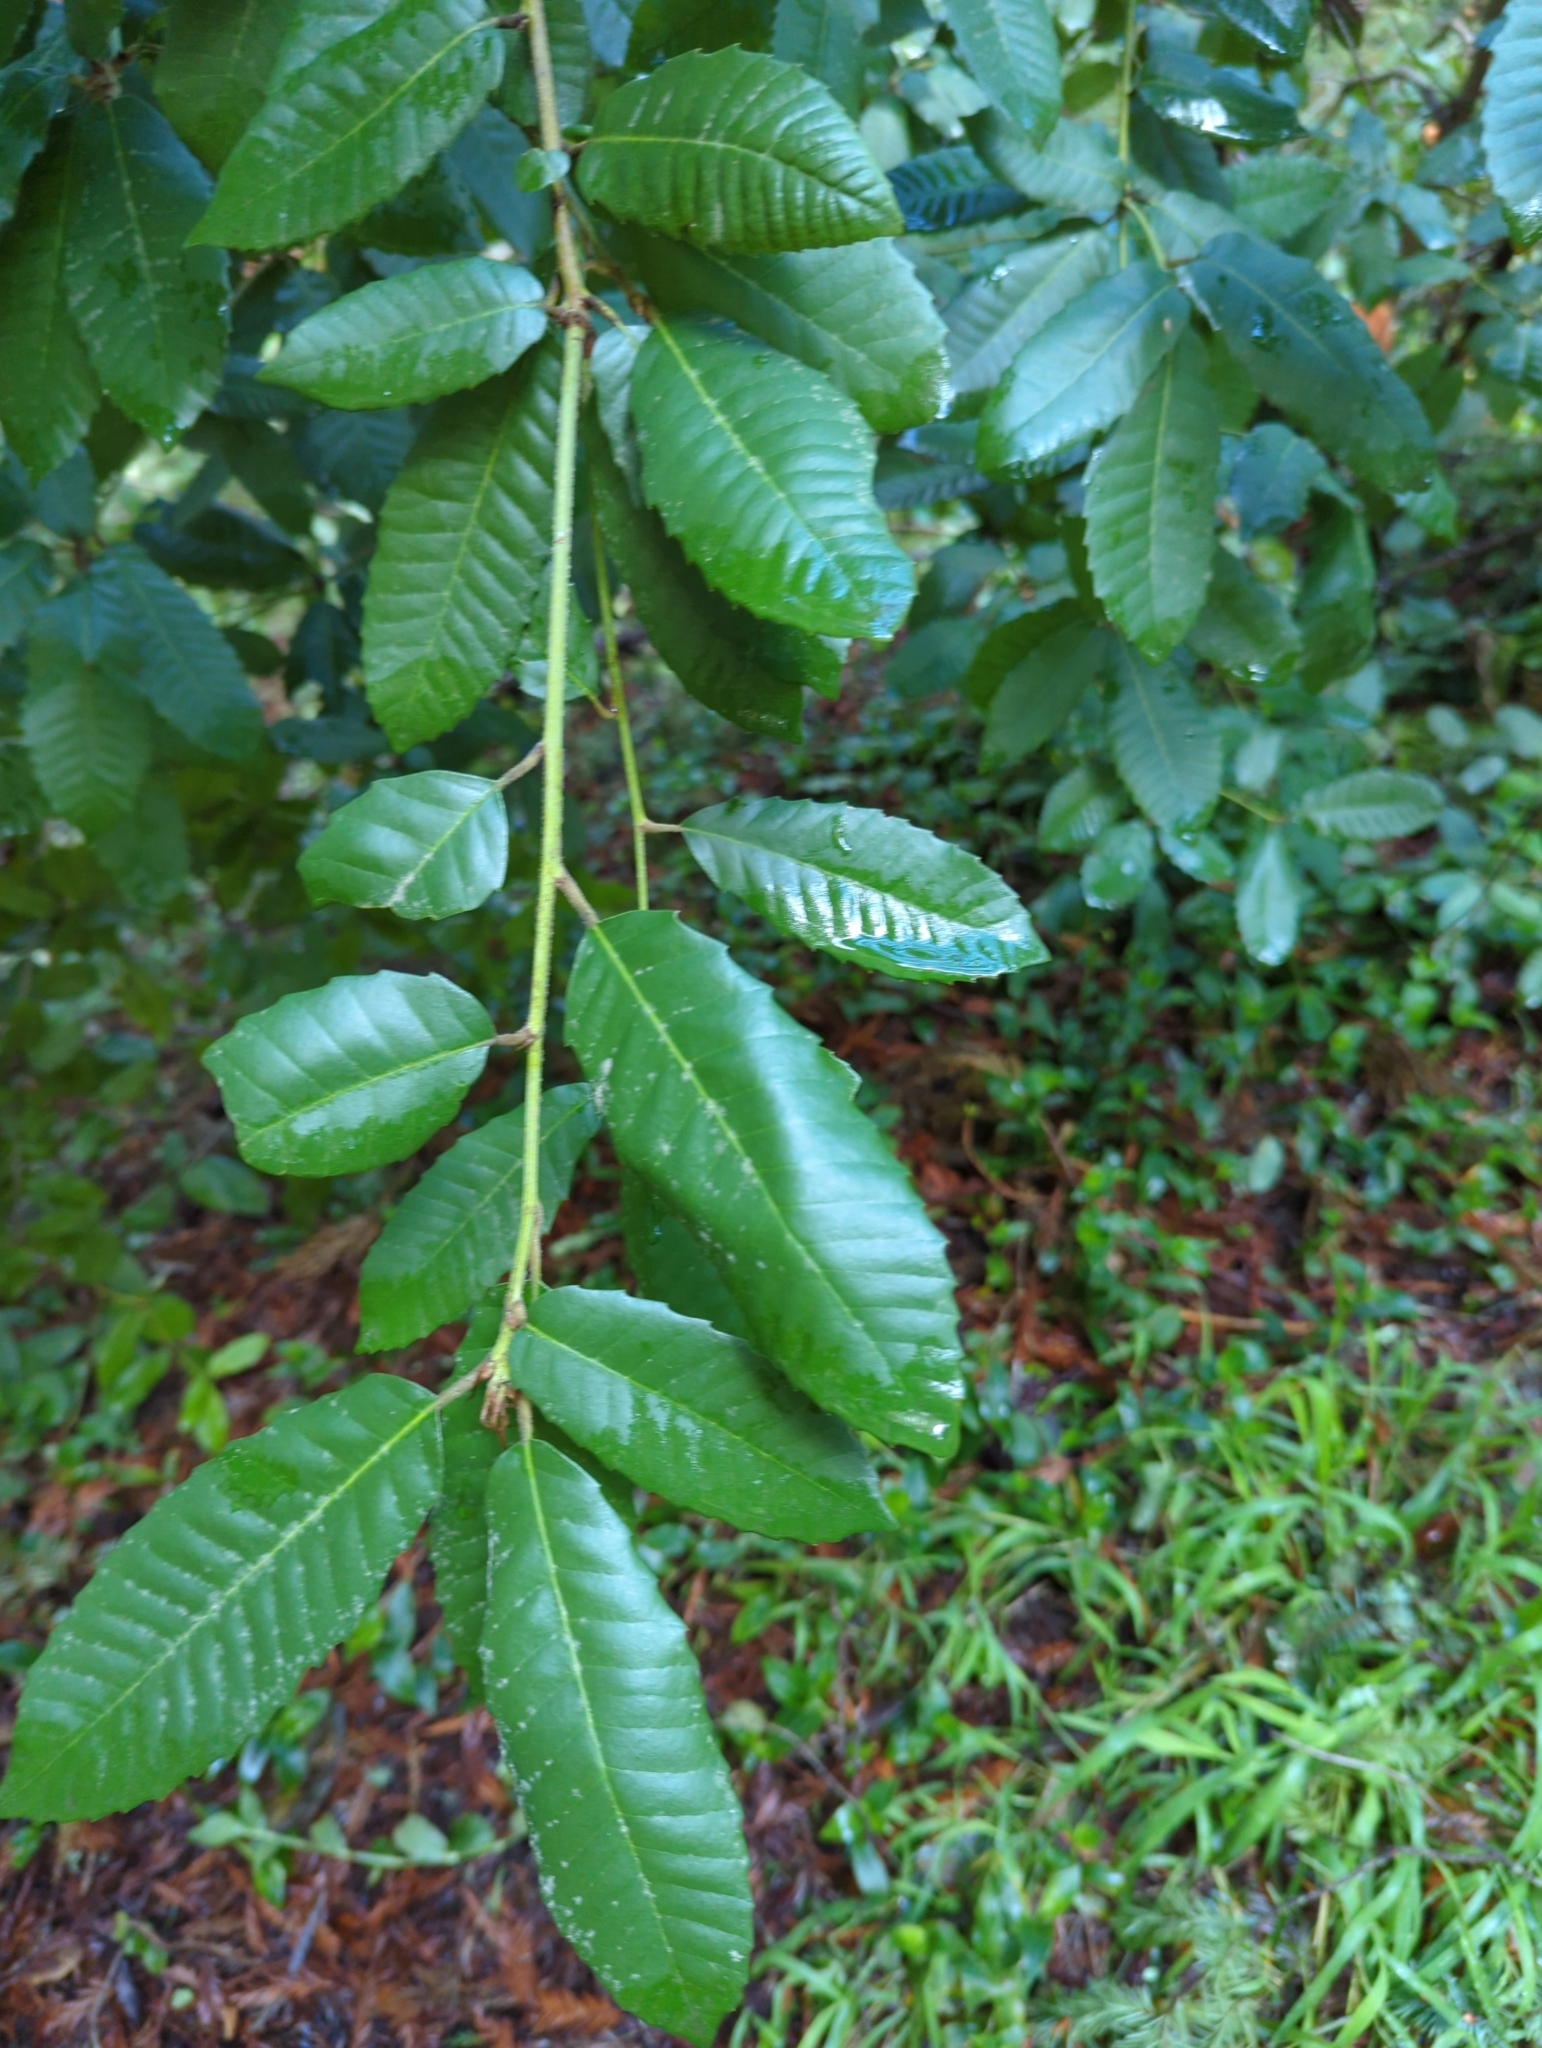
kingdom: Plantae
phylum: Tracheophyta
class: Magnoliopsida
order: Fagales
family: Fagaceae
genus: Notholithocarpus
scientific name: Notholithocarpus densiflorus
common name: Tan bark oak
